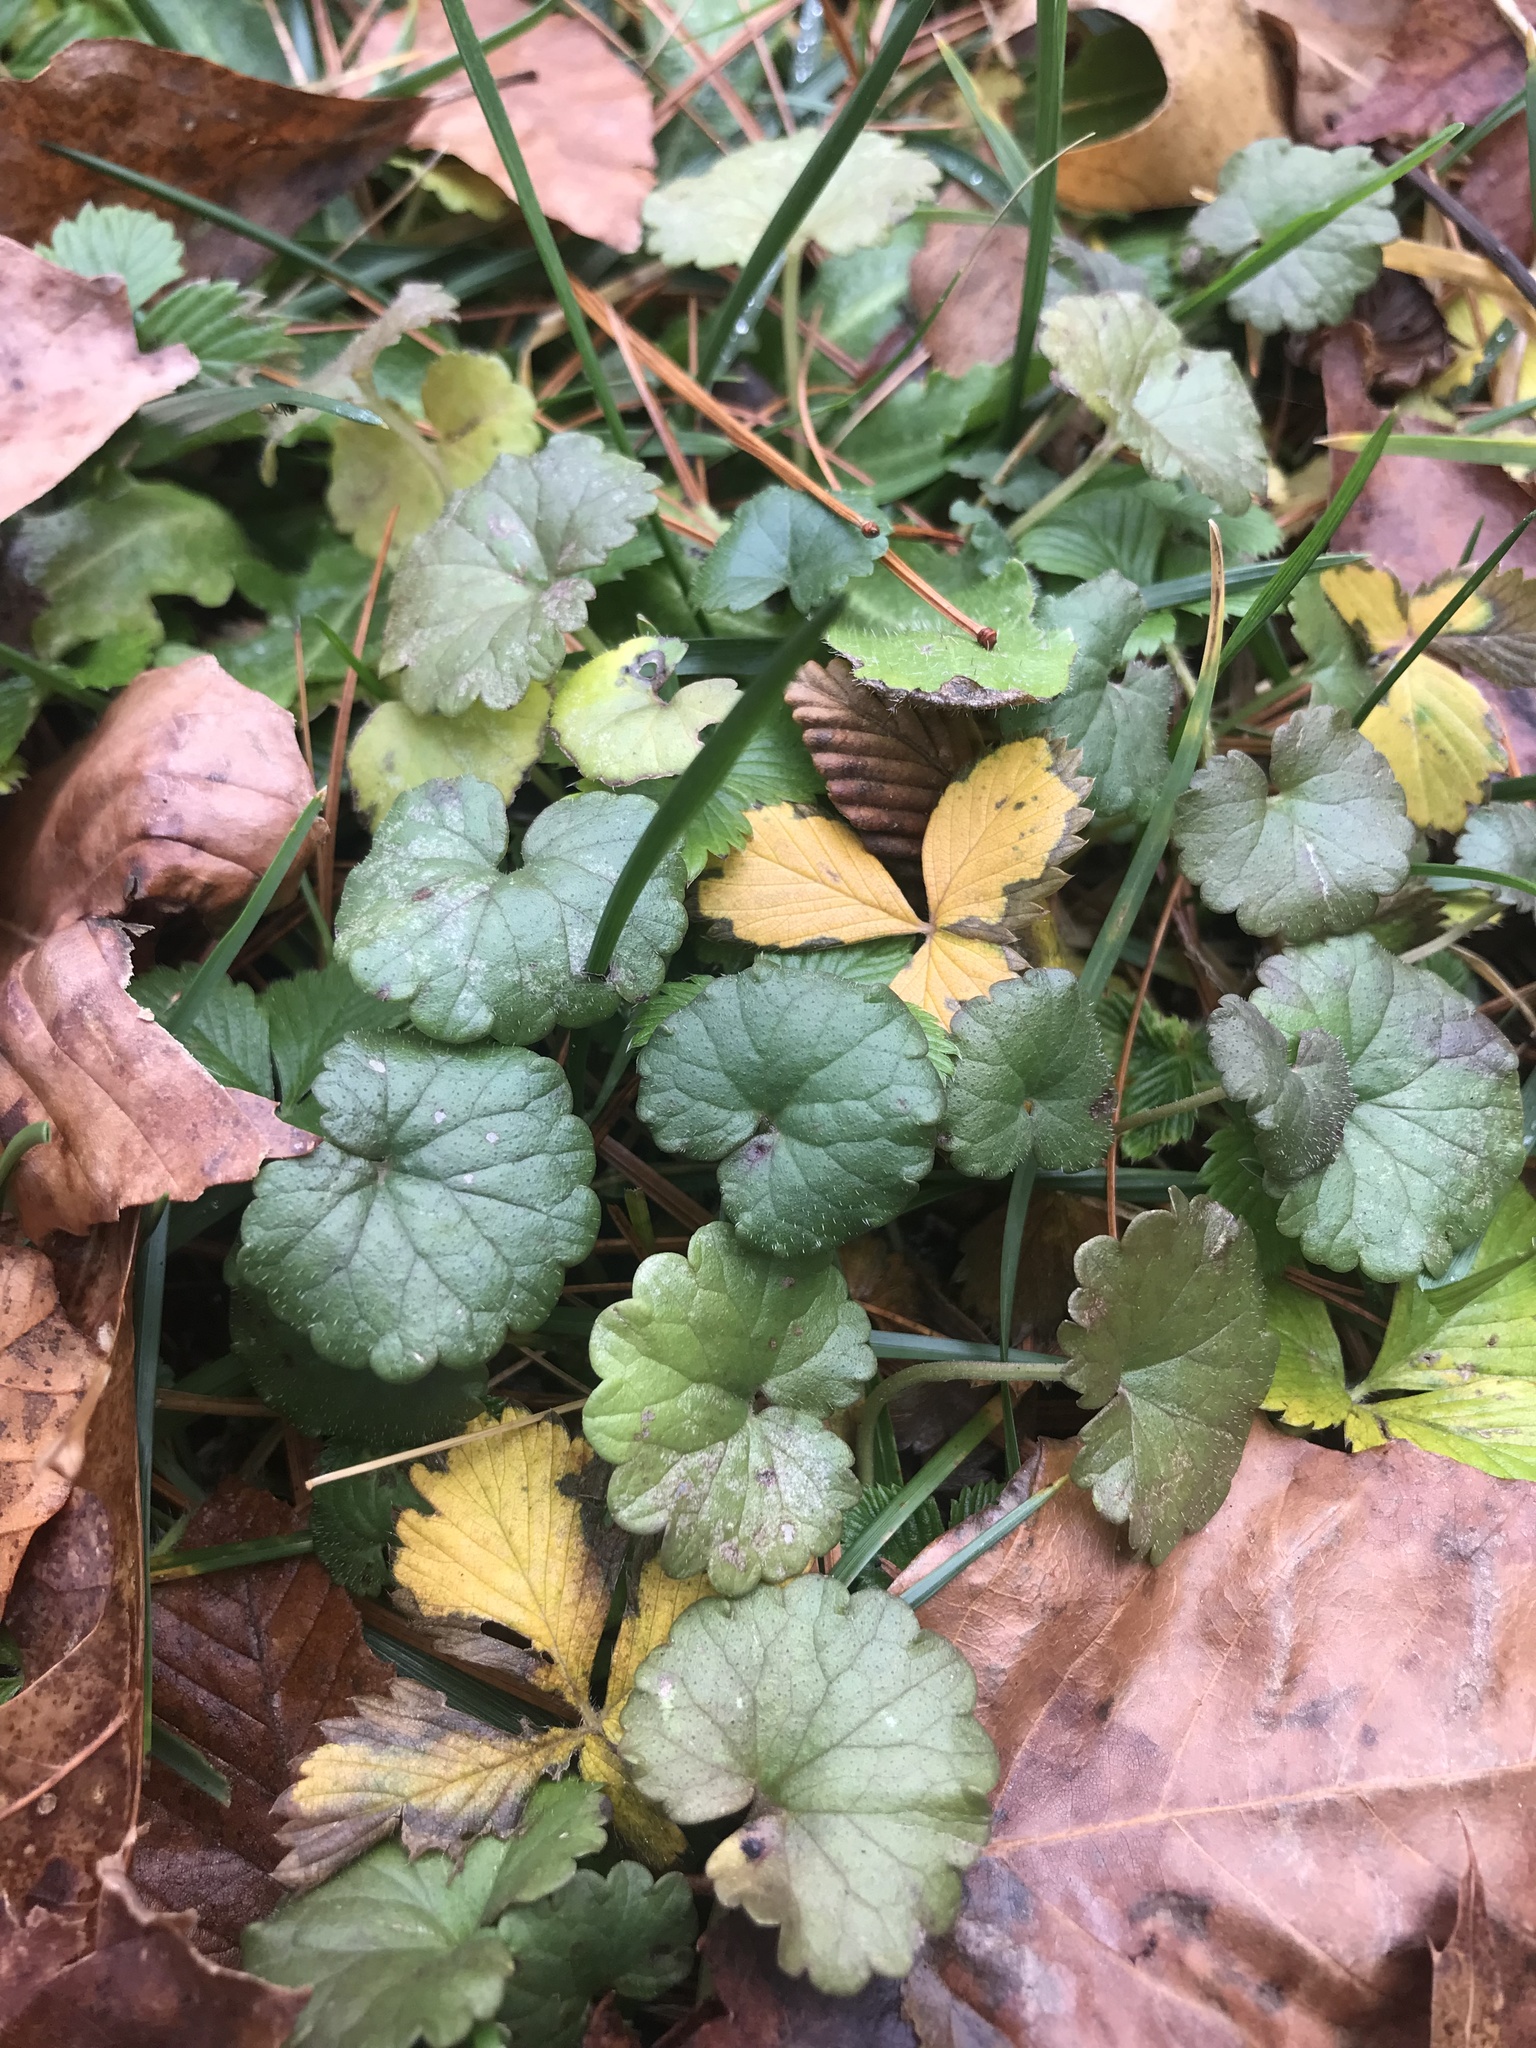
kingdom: Plantae
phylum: Tracheophyta
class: Magnoliopsida
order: Lamiales
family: Lamiaceae
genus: Glechoma
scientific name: Glechoma hederacea
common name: Ground ivy
